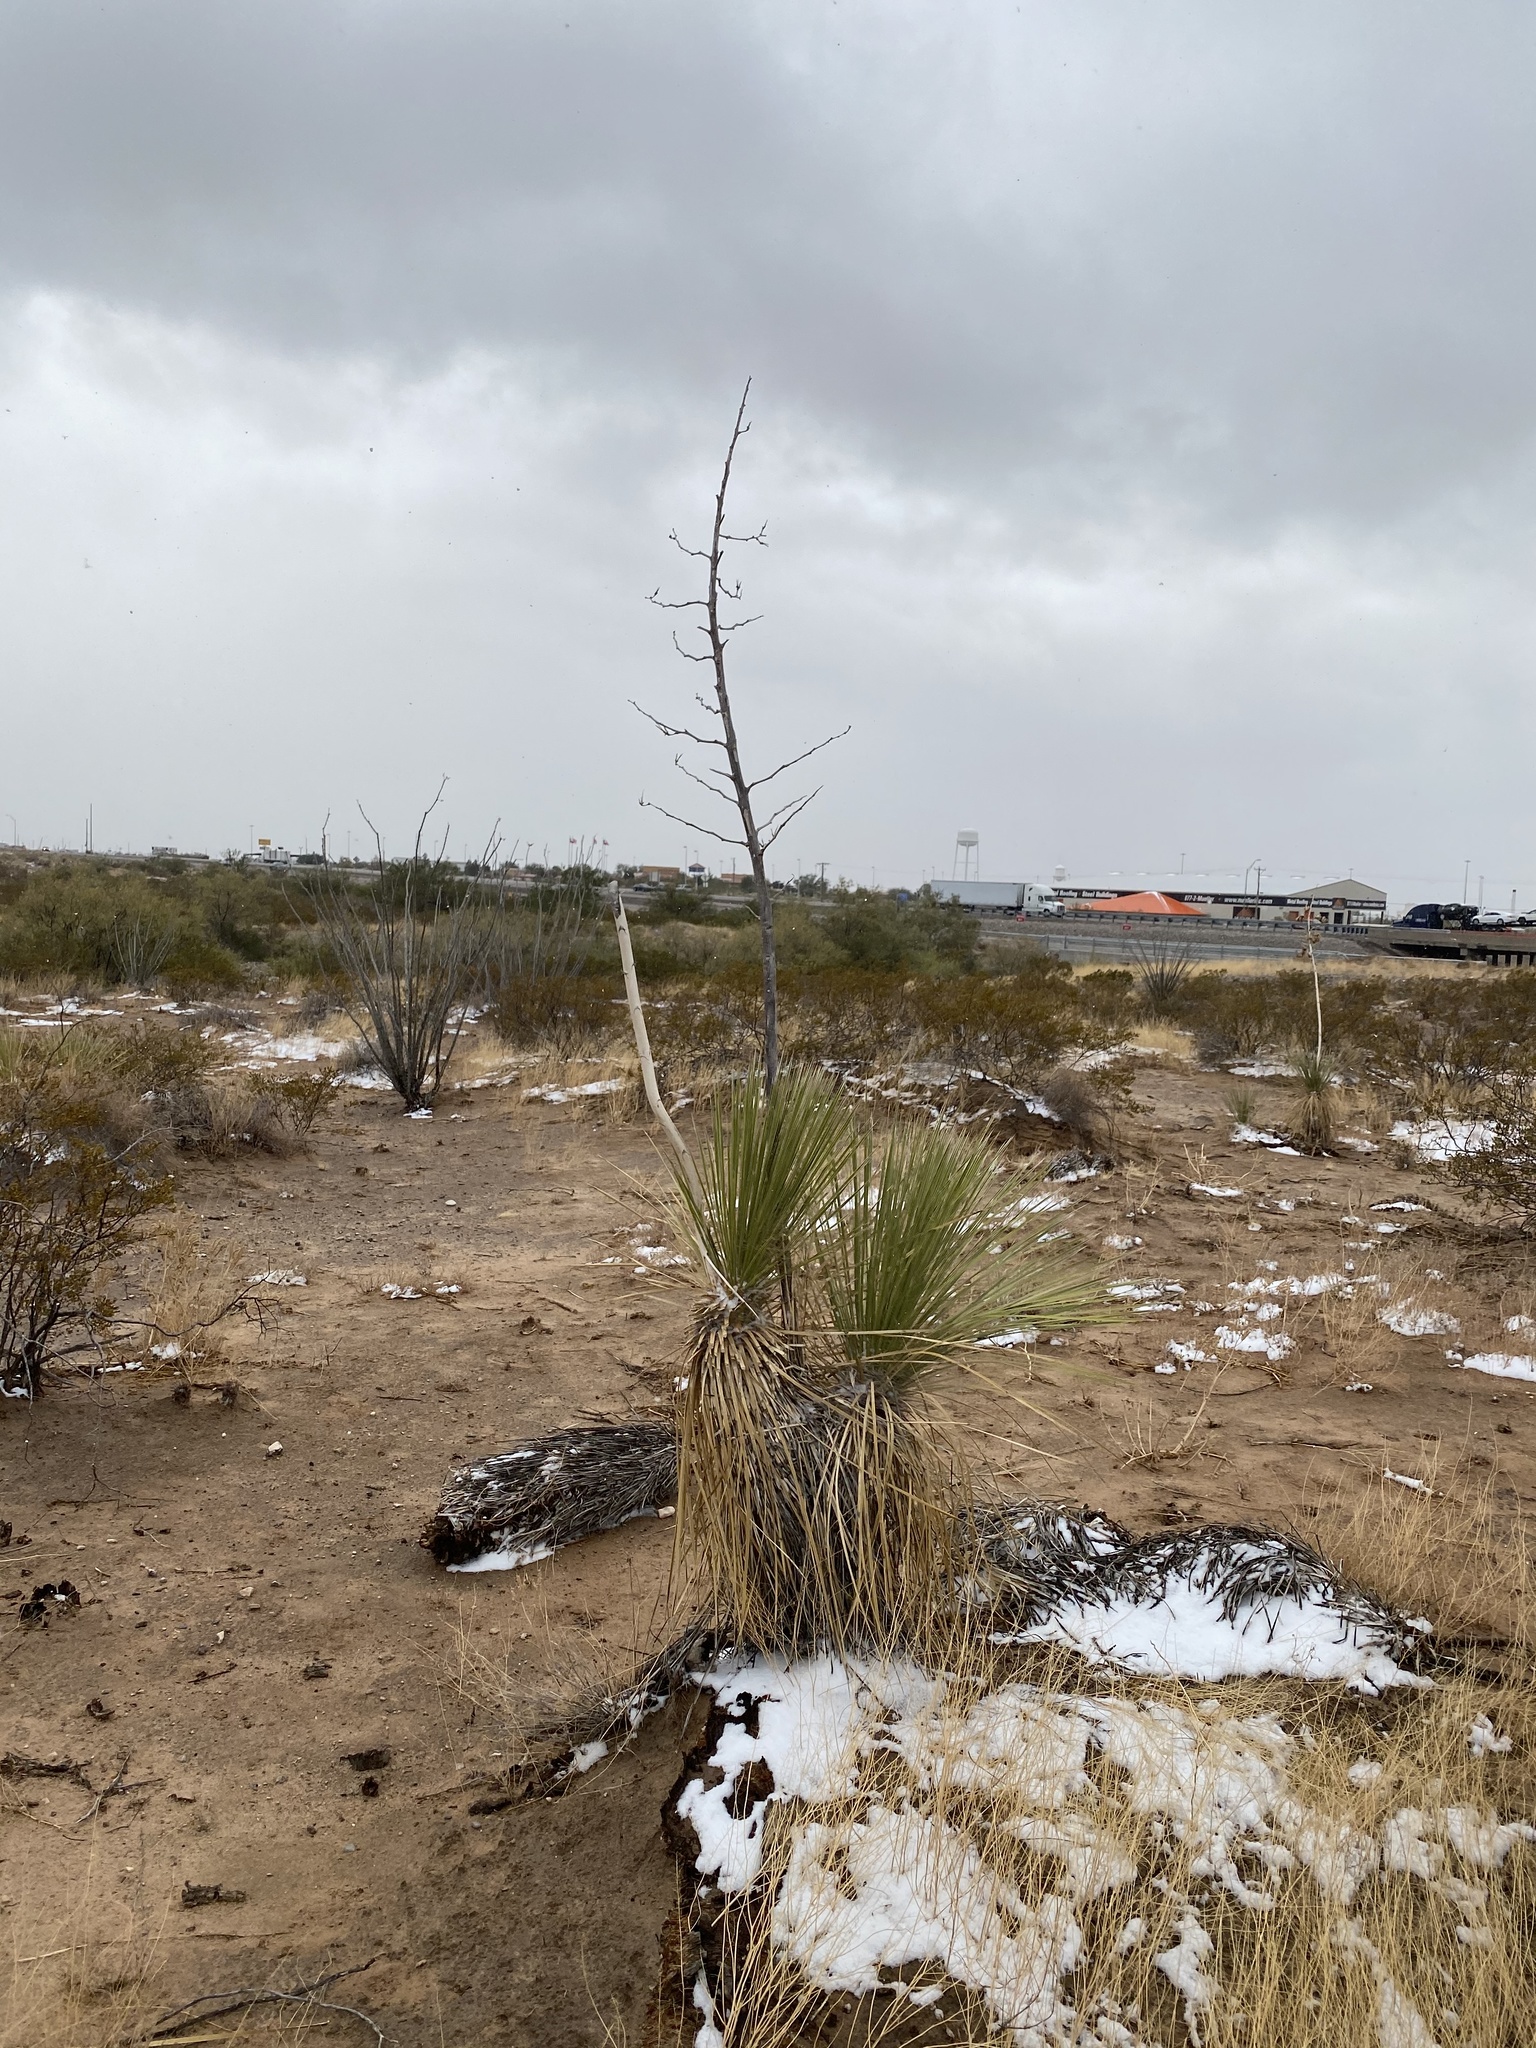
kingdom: Plantae
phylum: Tracheophyta
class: Liliopsida
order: Asparagales
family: Asparagaceae
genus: Yucca
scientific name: Yucca elata
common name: Palmella
